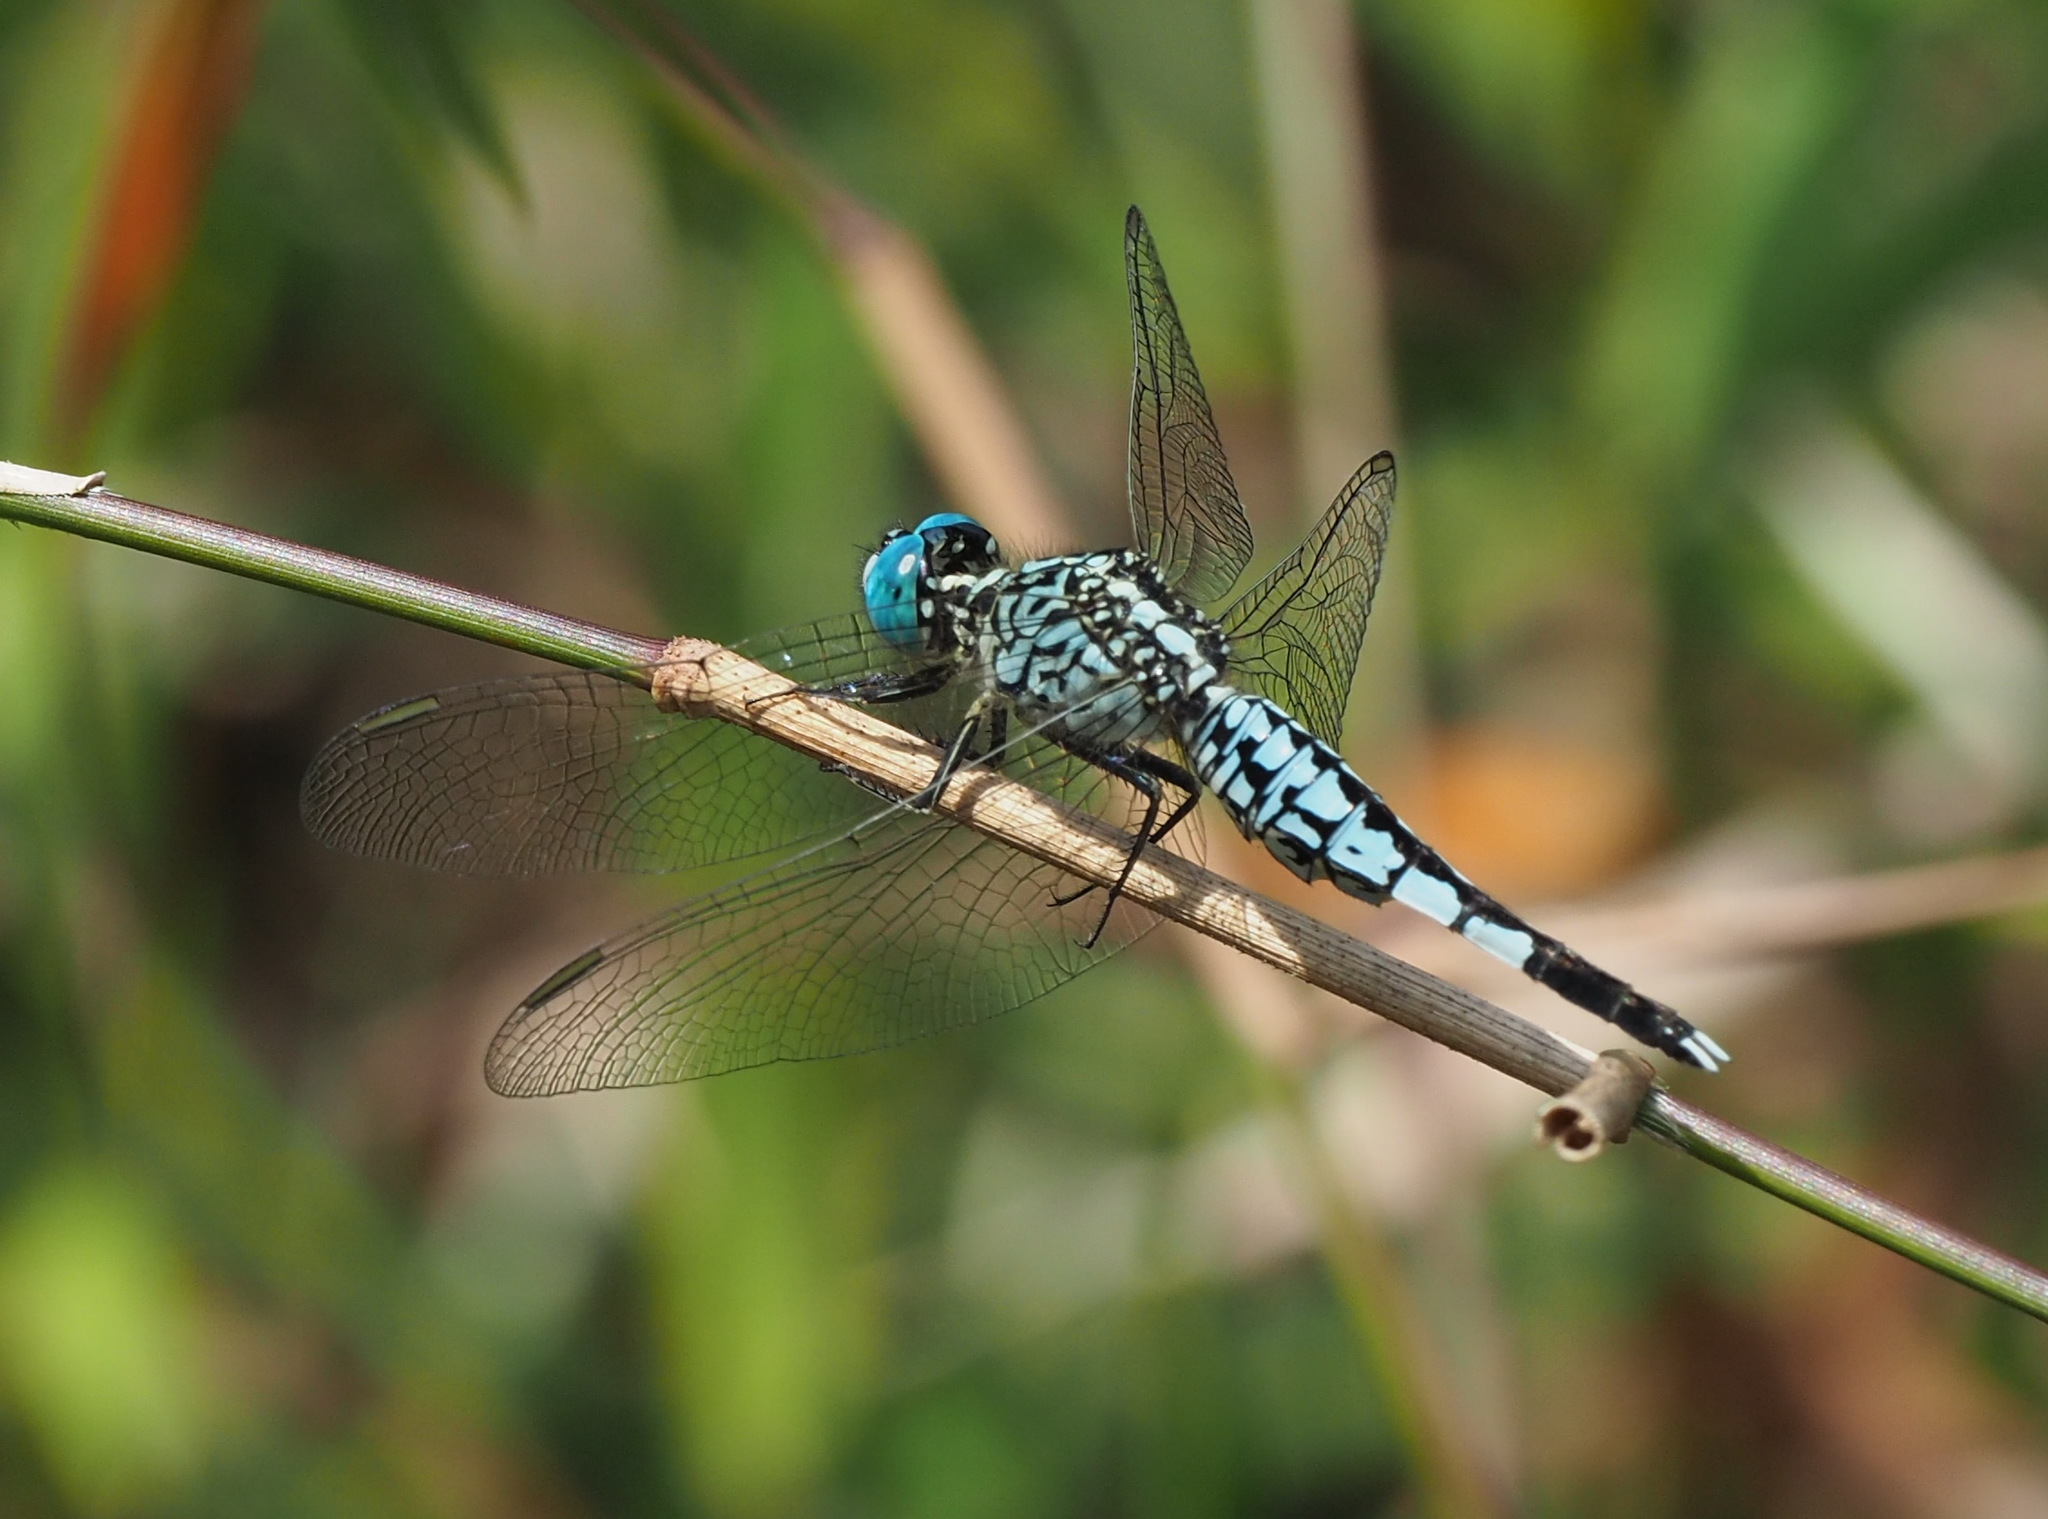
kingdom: Animalia
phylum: Arthropoda
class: Insecta
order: Odonata
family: Libellulidae
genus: Acisoma
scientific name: Acisoma panorpoides
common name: Asian pintail
